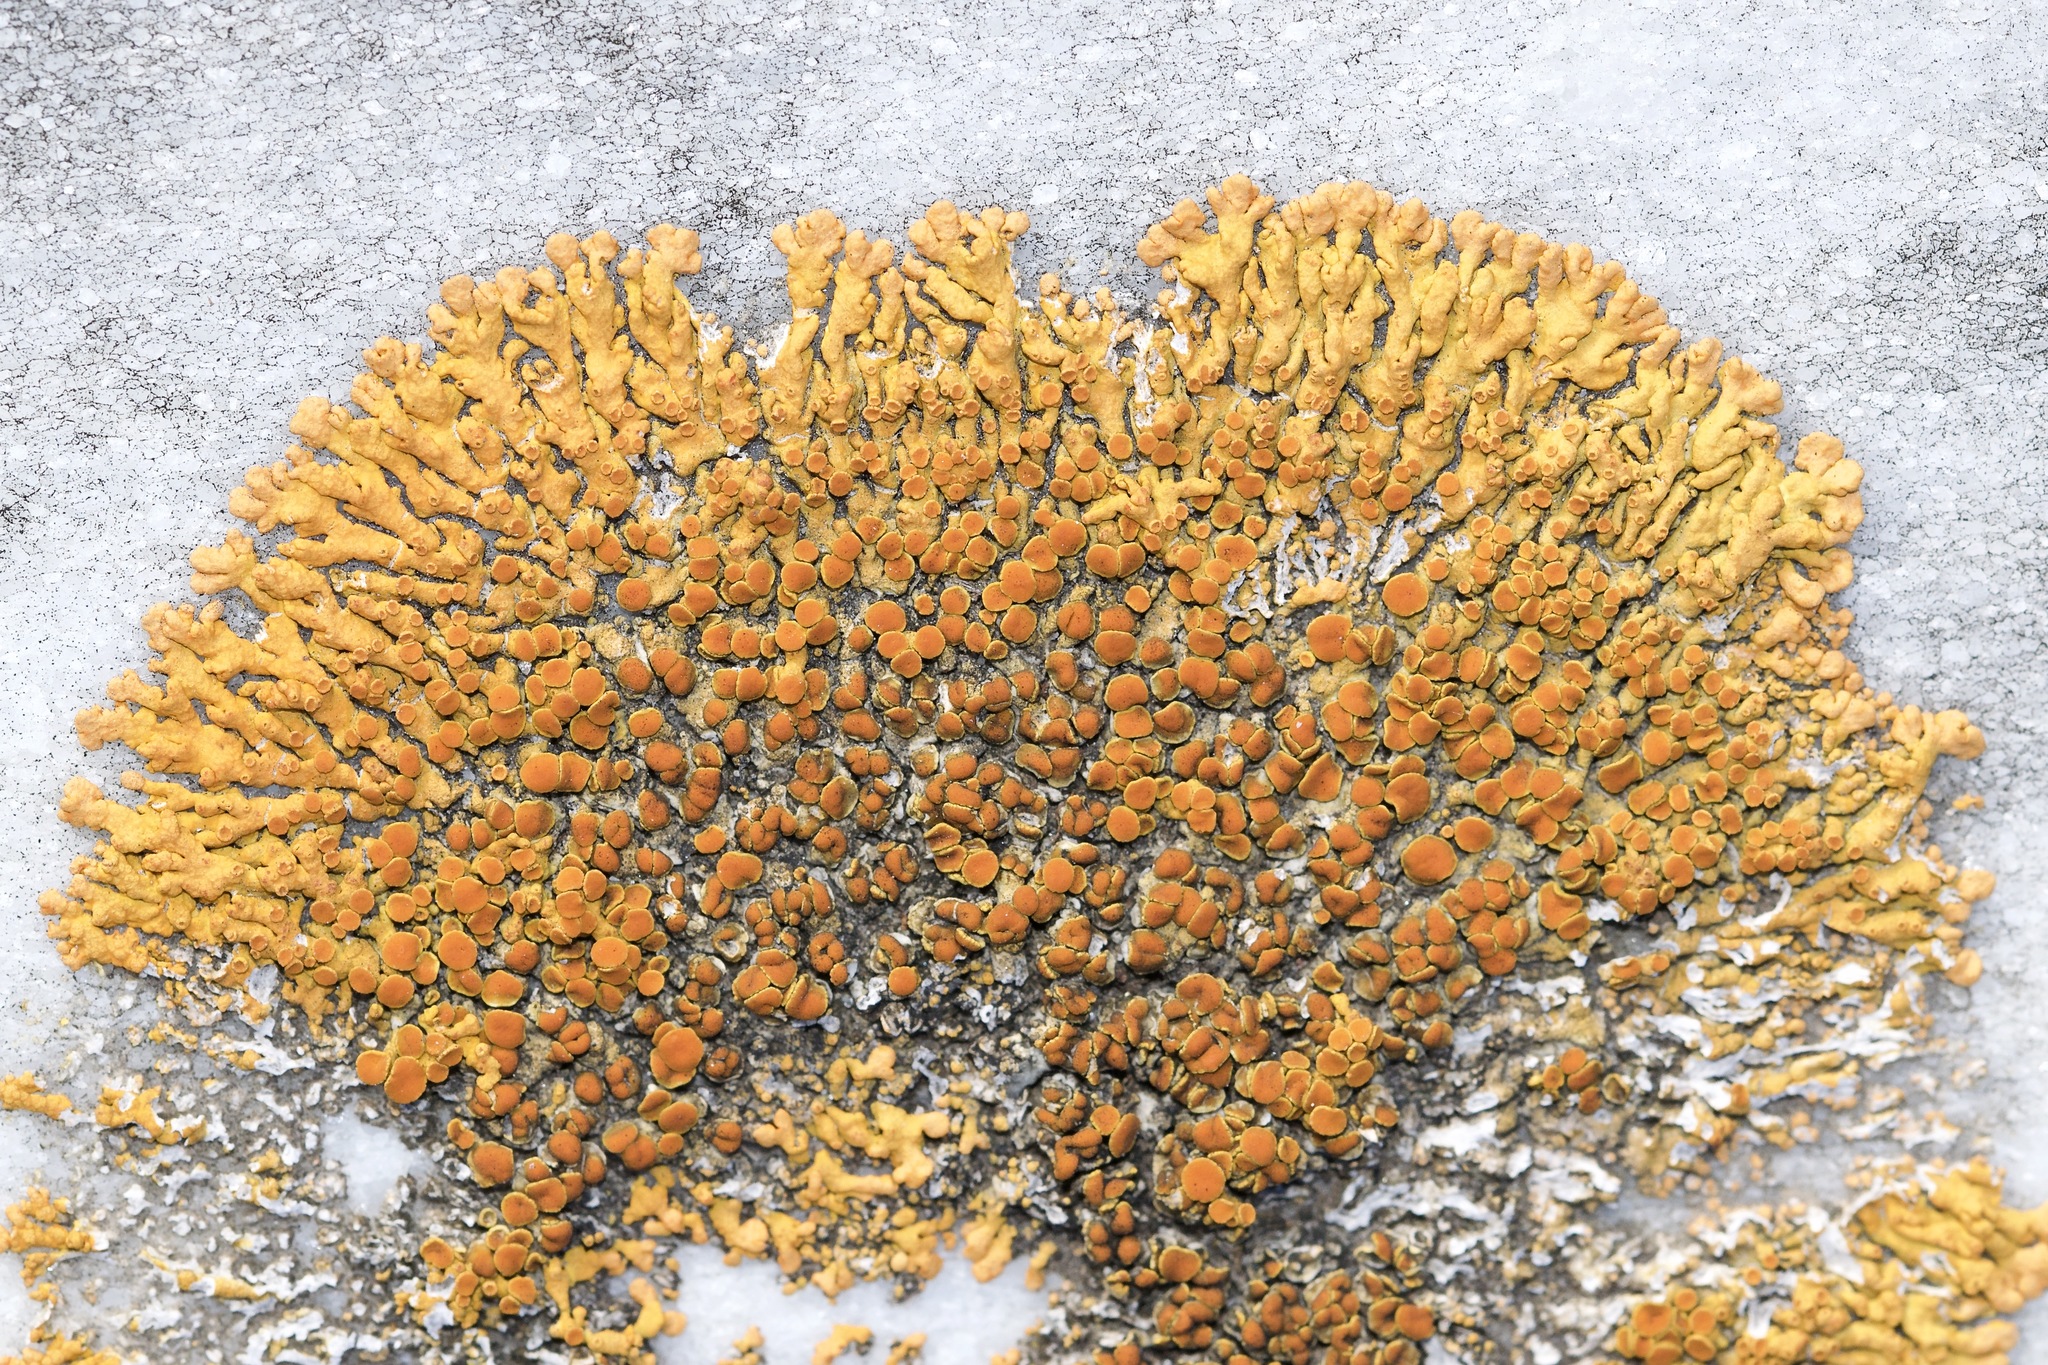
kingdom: Fungi
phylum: Ascomycota
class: Lecanoromycetes
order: Teloschistales
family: Teloschistaceae
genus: Xanthoria
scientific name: Xanthoria elegans
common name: Elegant sunburst lichen
